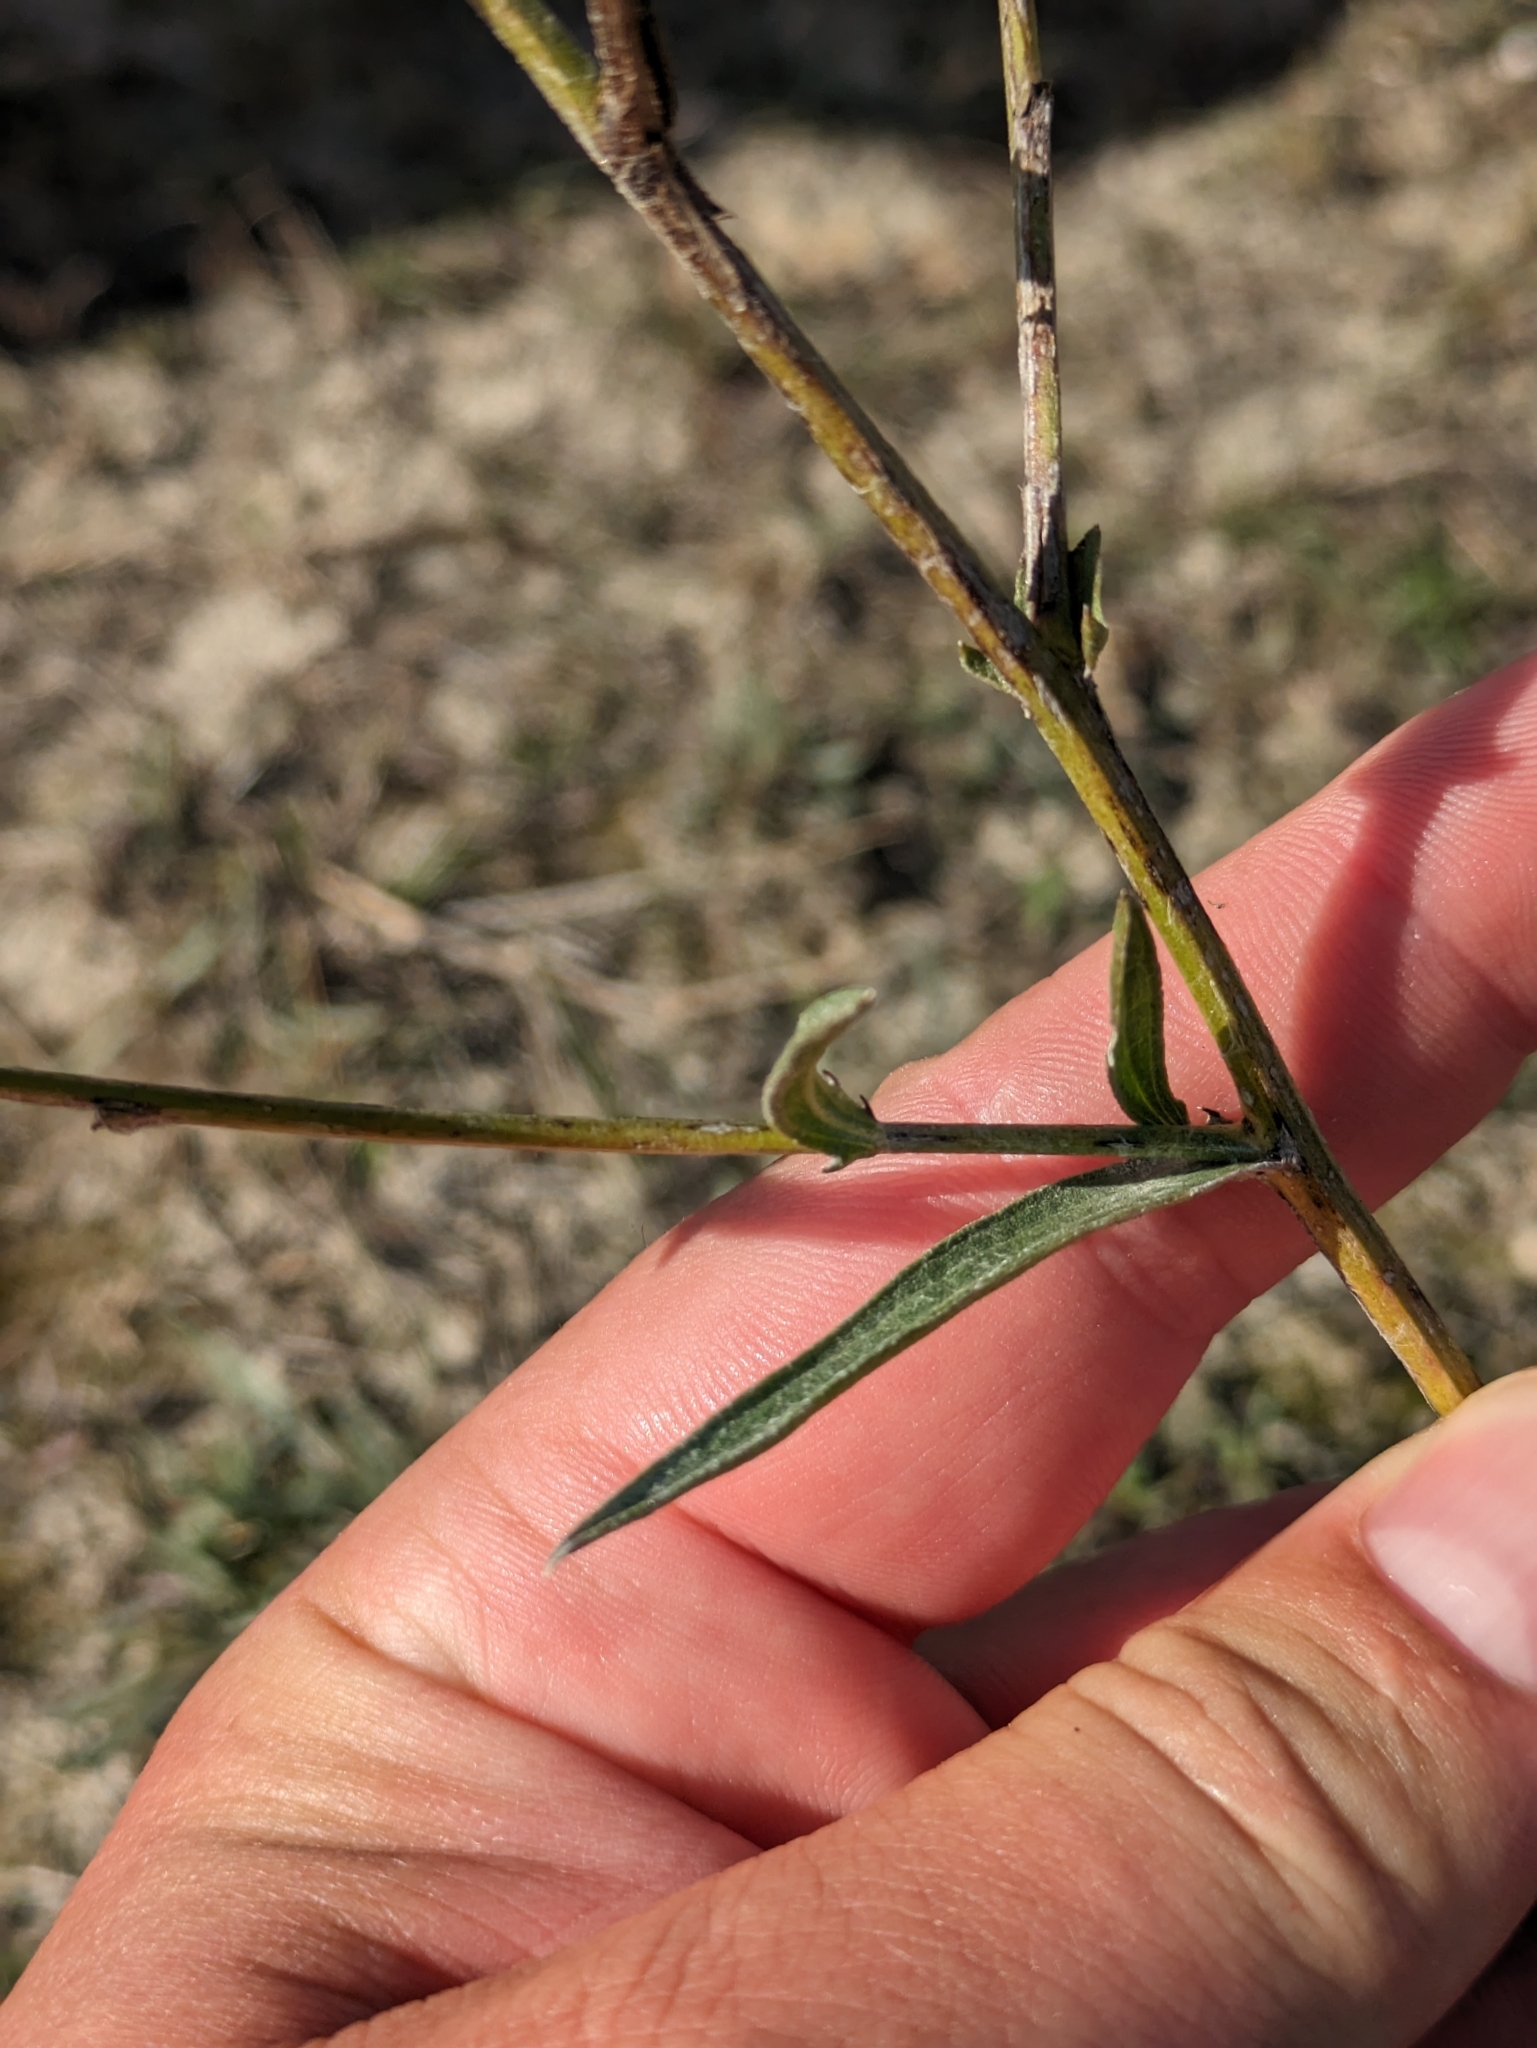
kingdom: Plantae
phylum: Tracheophyta
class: Magnoliopsida
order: Asterales
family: Asteraceae
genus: Centaurea
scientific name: Centaurea jacea
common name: Brown knapweed
